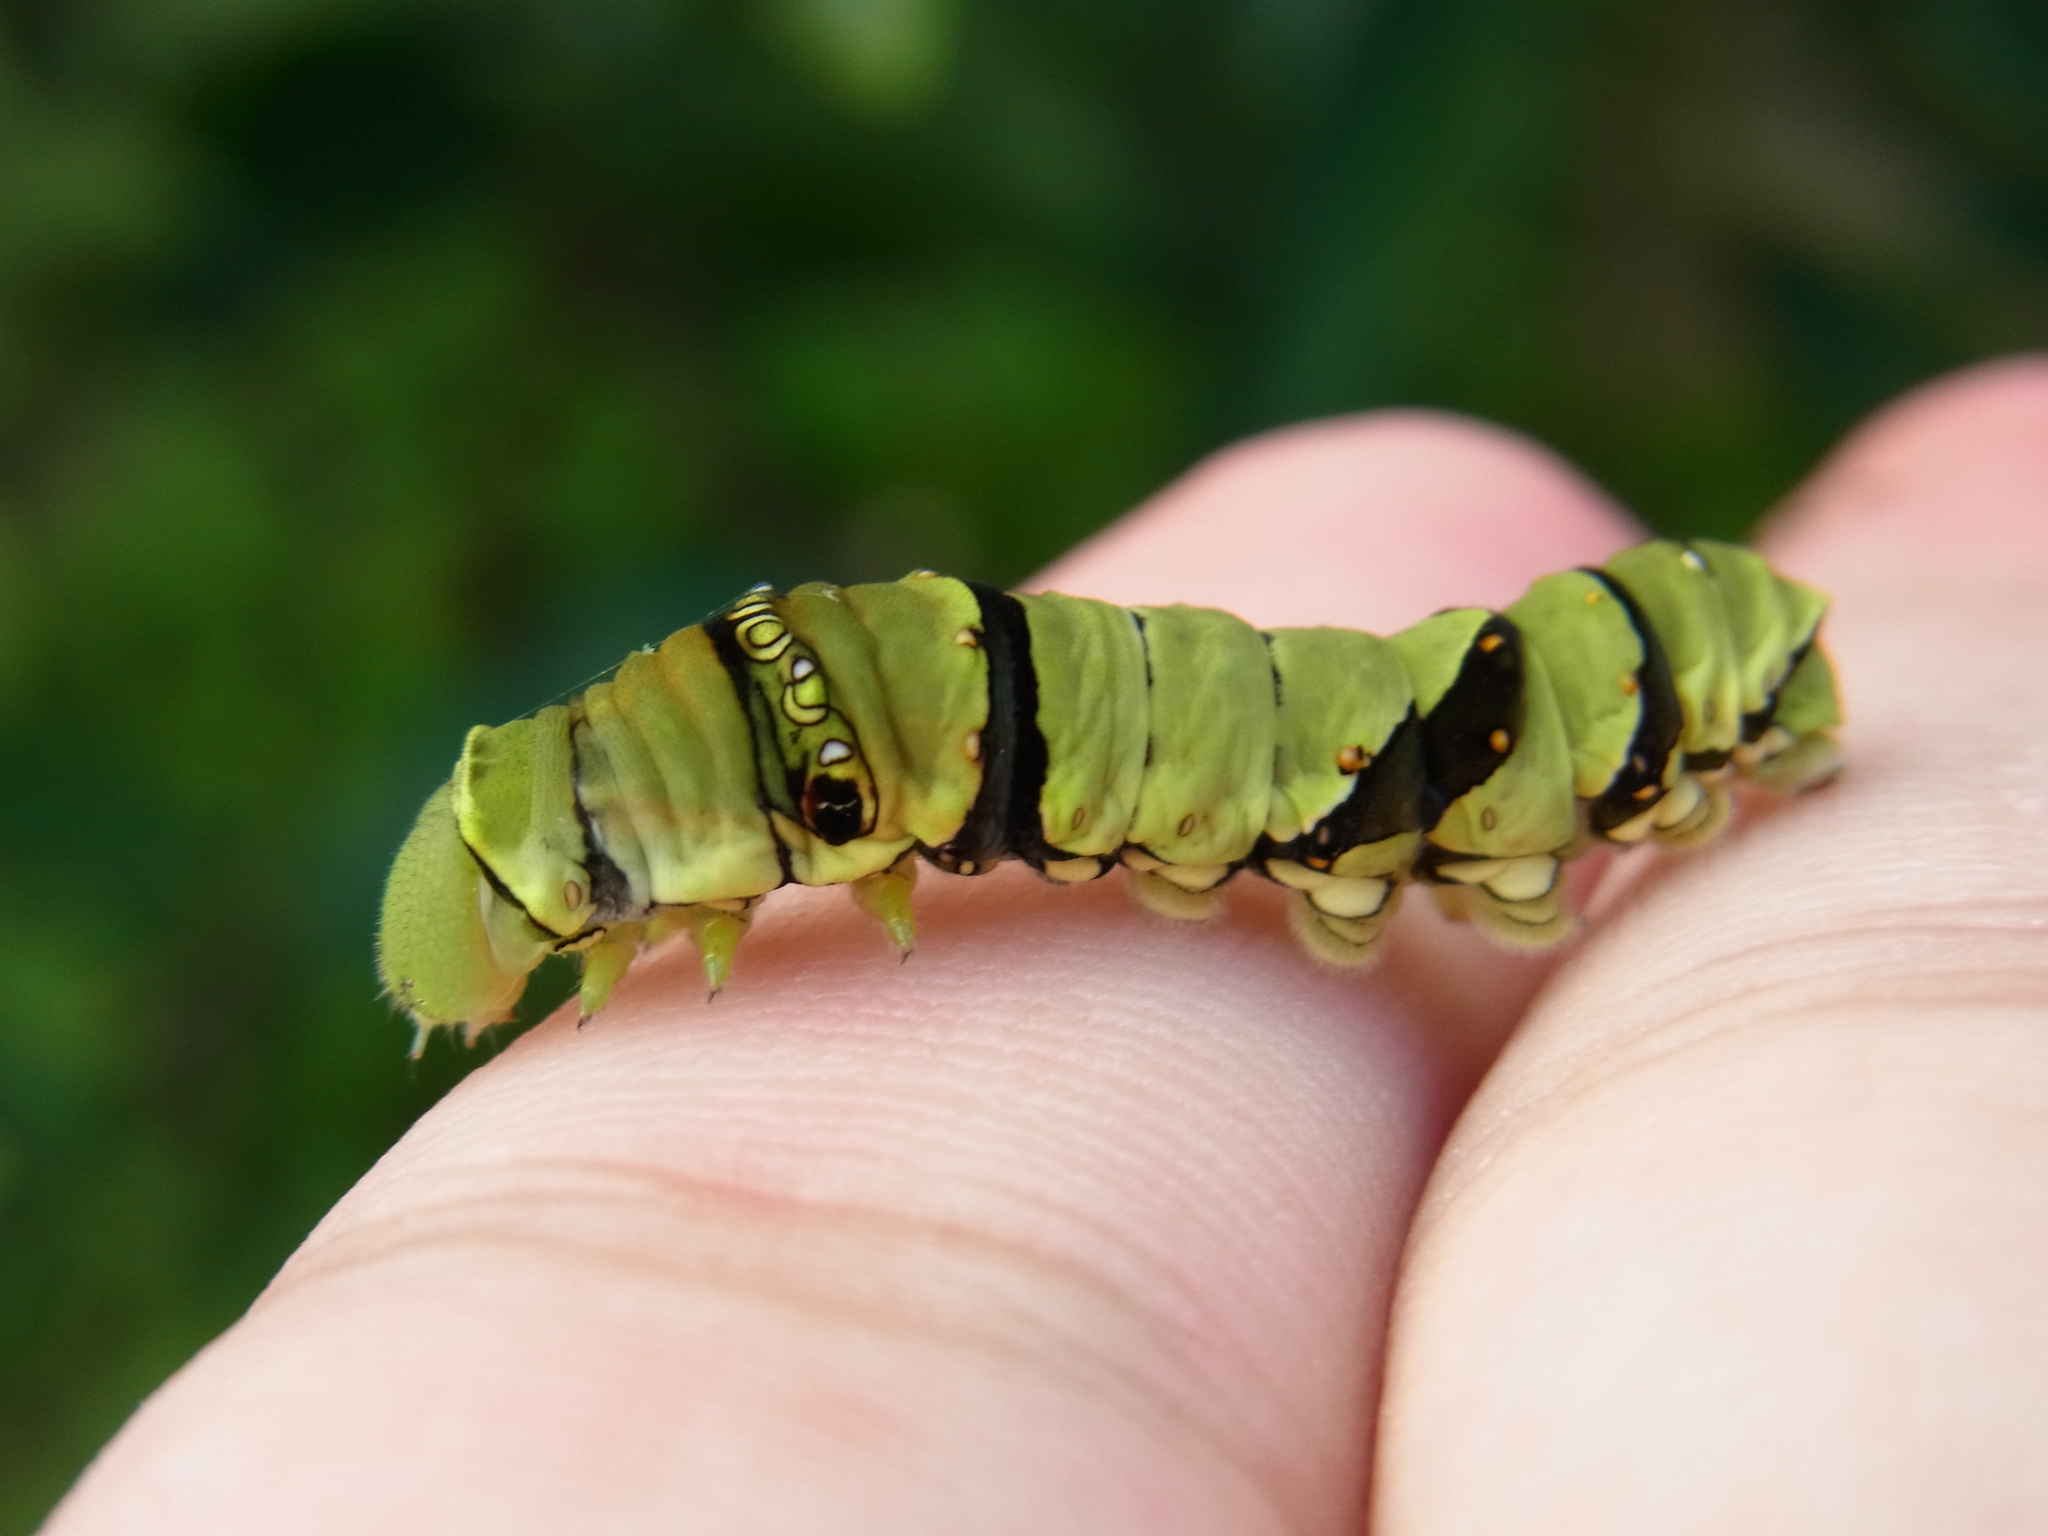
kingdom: Animalia
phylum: Arthropoda
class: Insecta
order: Lepidoptera
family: Papilionidae
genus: Papilio
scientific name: Papilio xuthus
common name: Asian swallowtail
